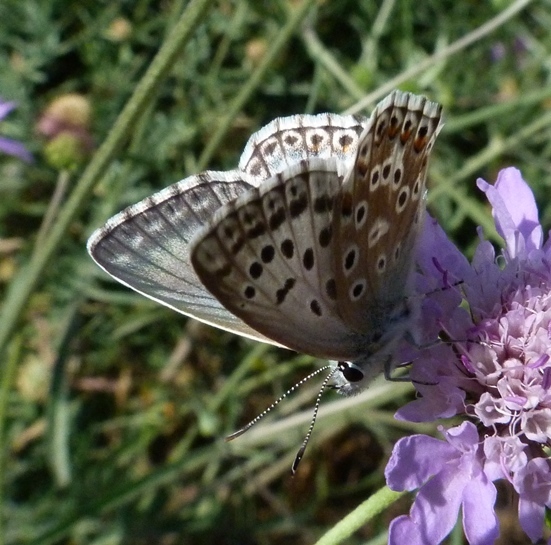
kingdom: Animalia
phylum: Arthropoda
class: Insecta
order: Lepidoptera
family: Lycaenidae
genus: Lysandra
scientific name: Lysandra hispana
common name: Provence chalkhill blue
